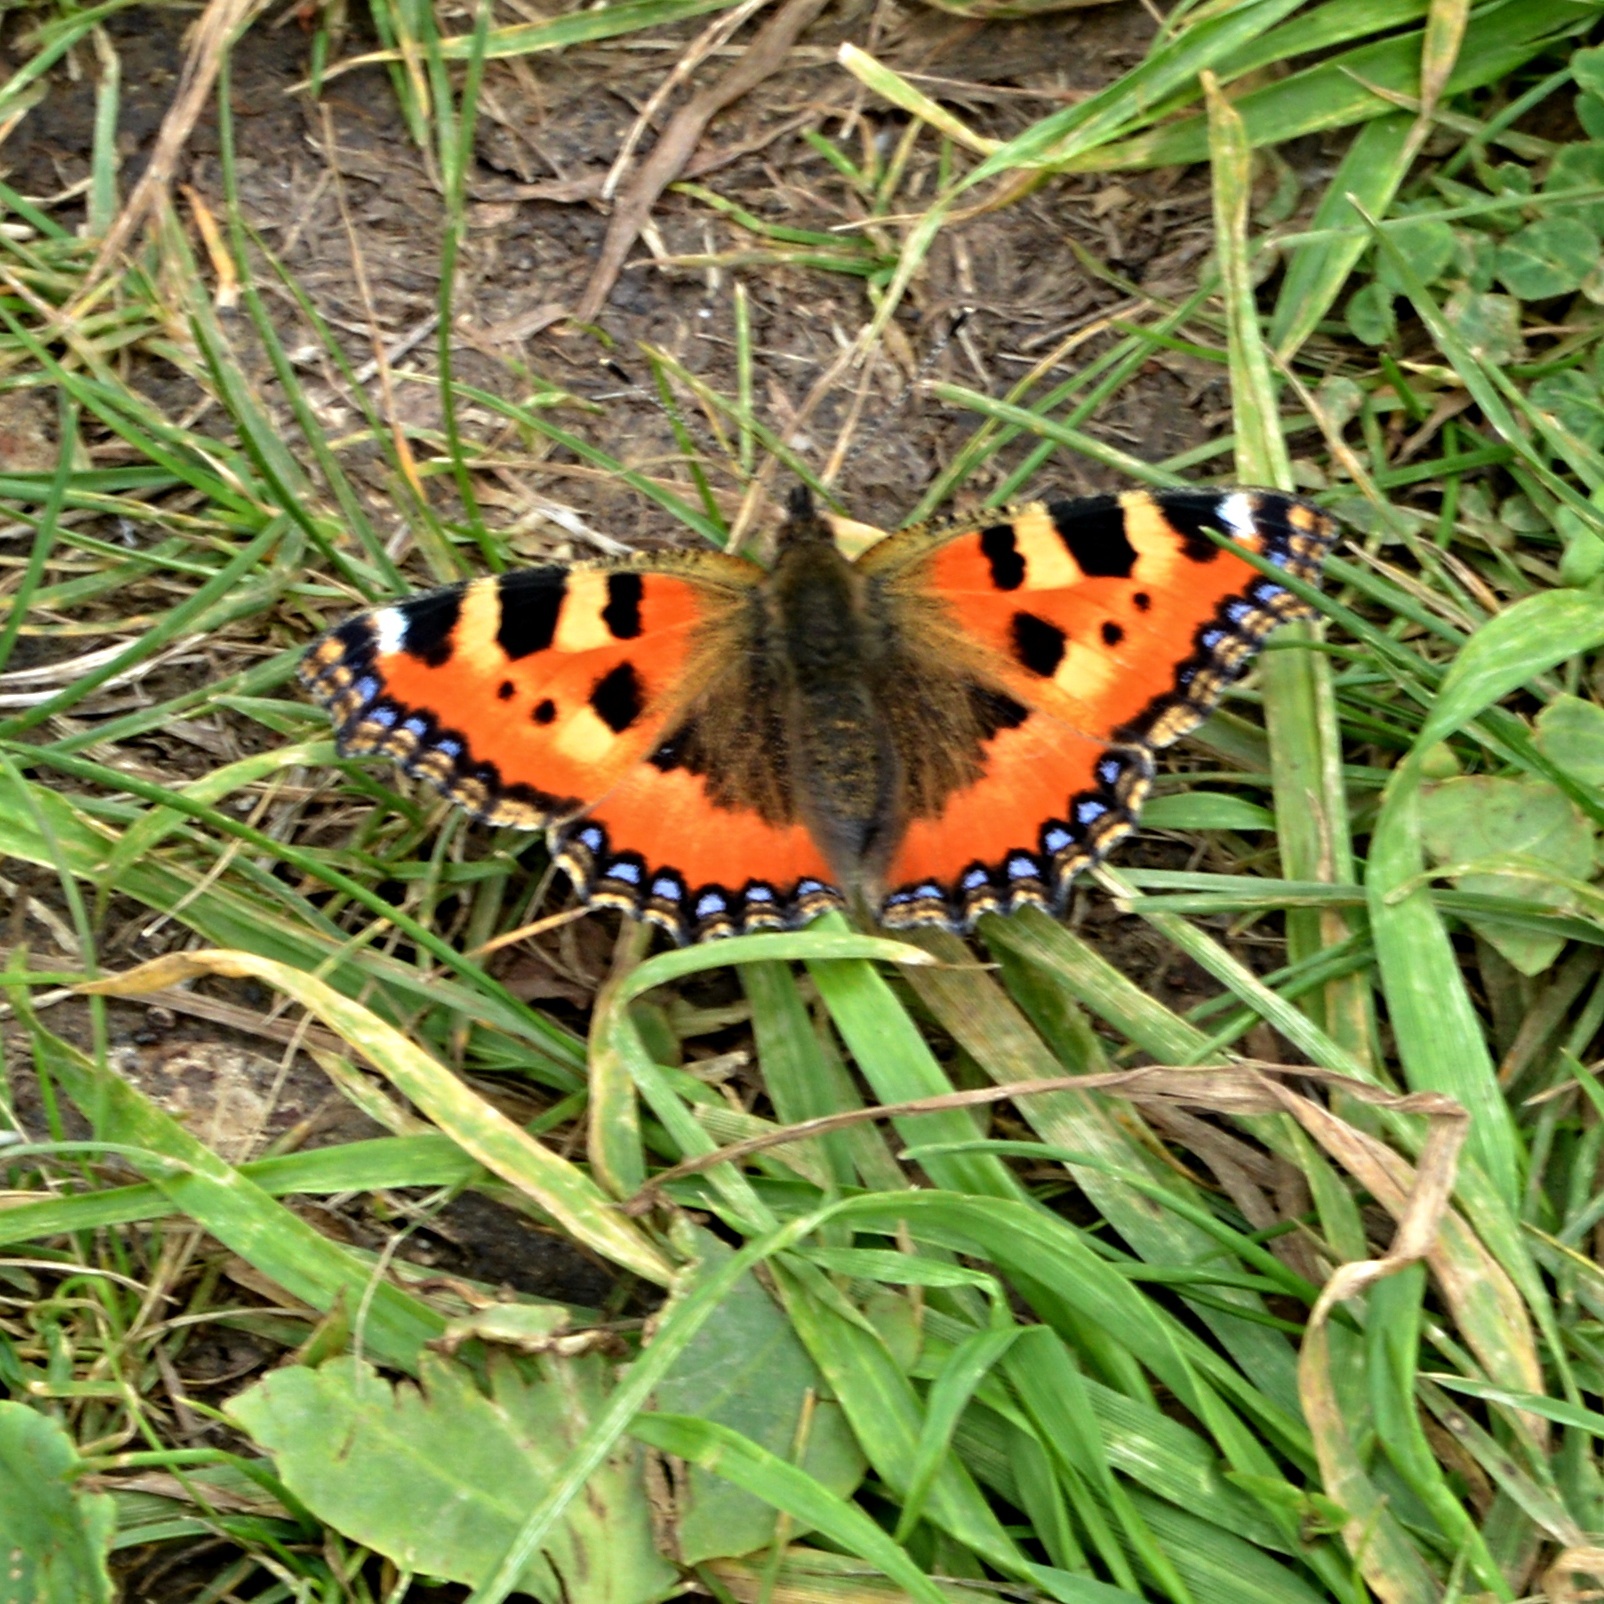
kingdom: Animalia
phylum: Arthropoda
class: Insecta
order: Lepidoptera
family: Nymphalidae
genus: Aglais
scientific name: Aglais urticae
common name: Small tortoiseshell
